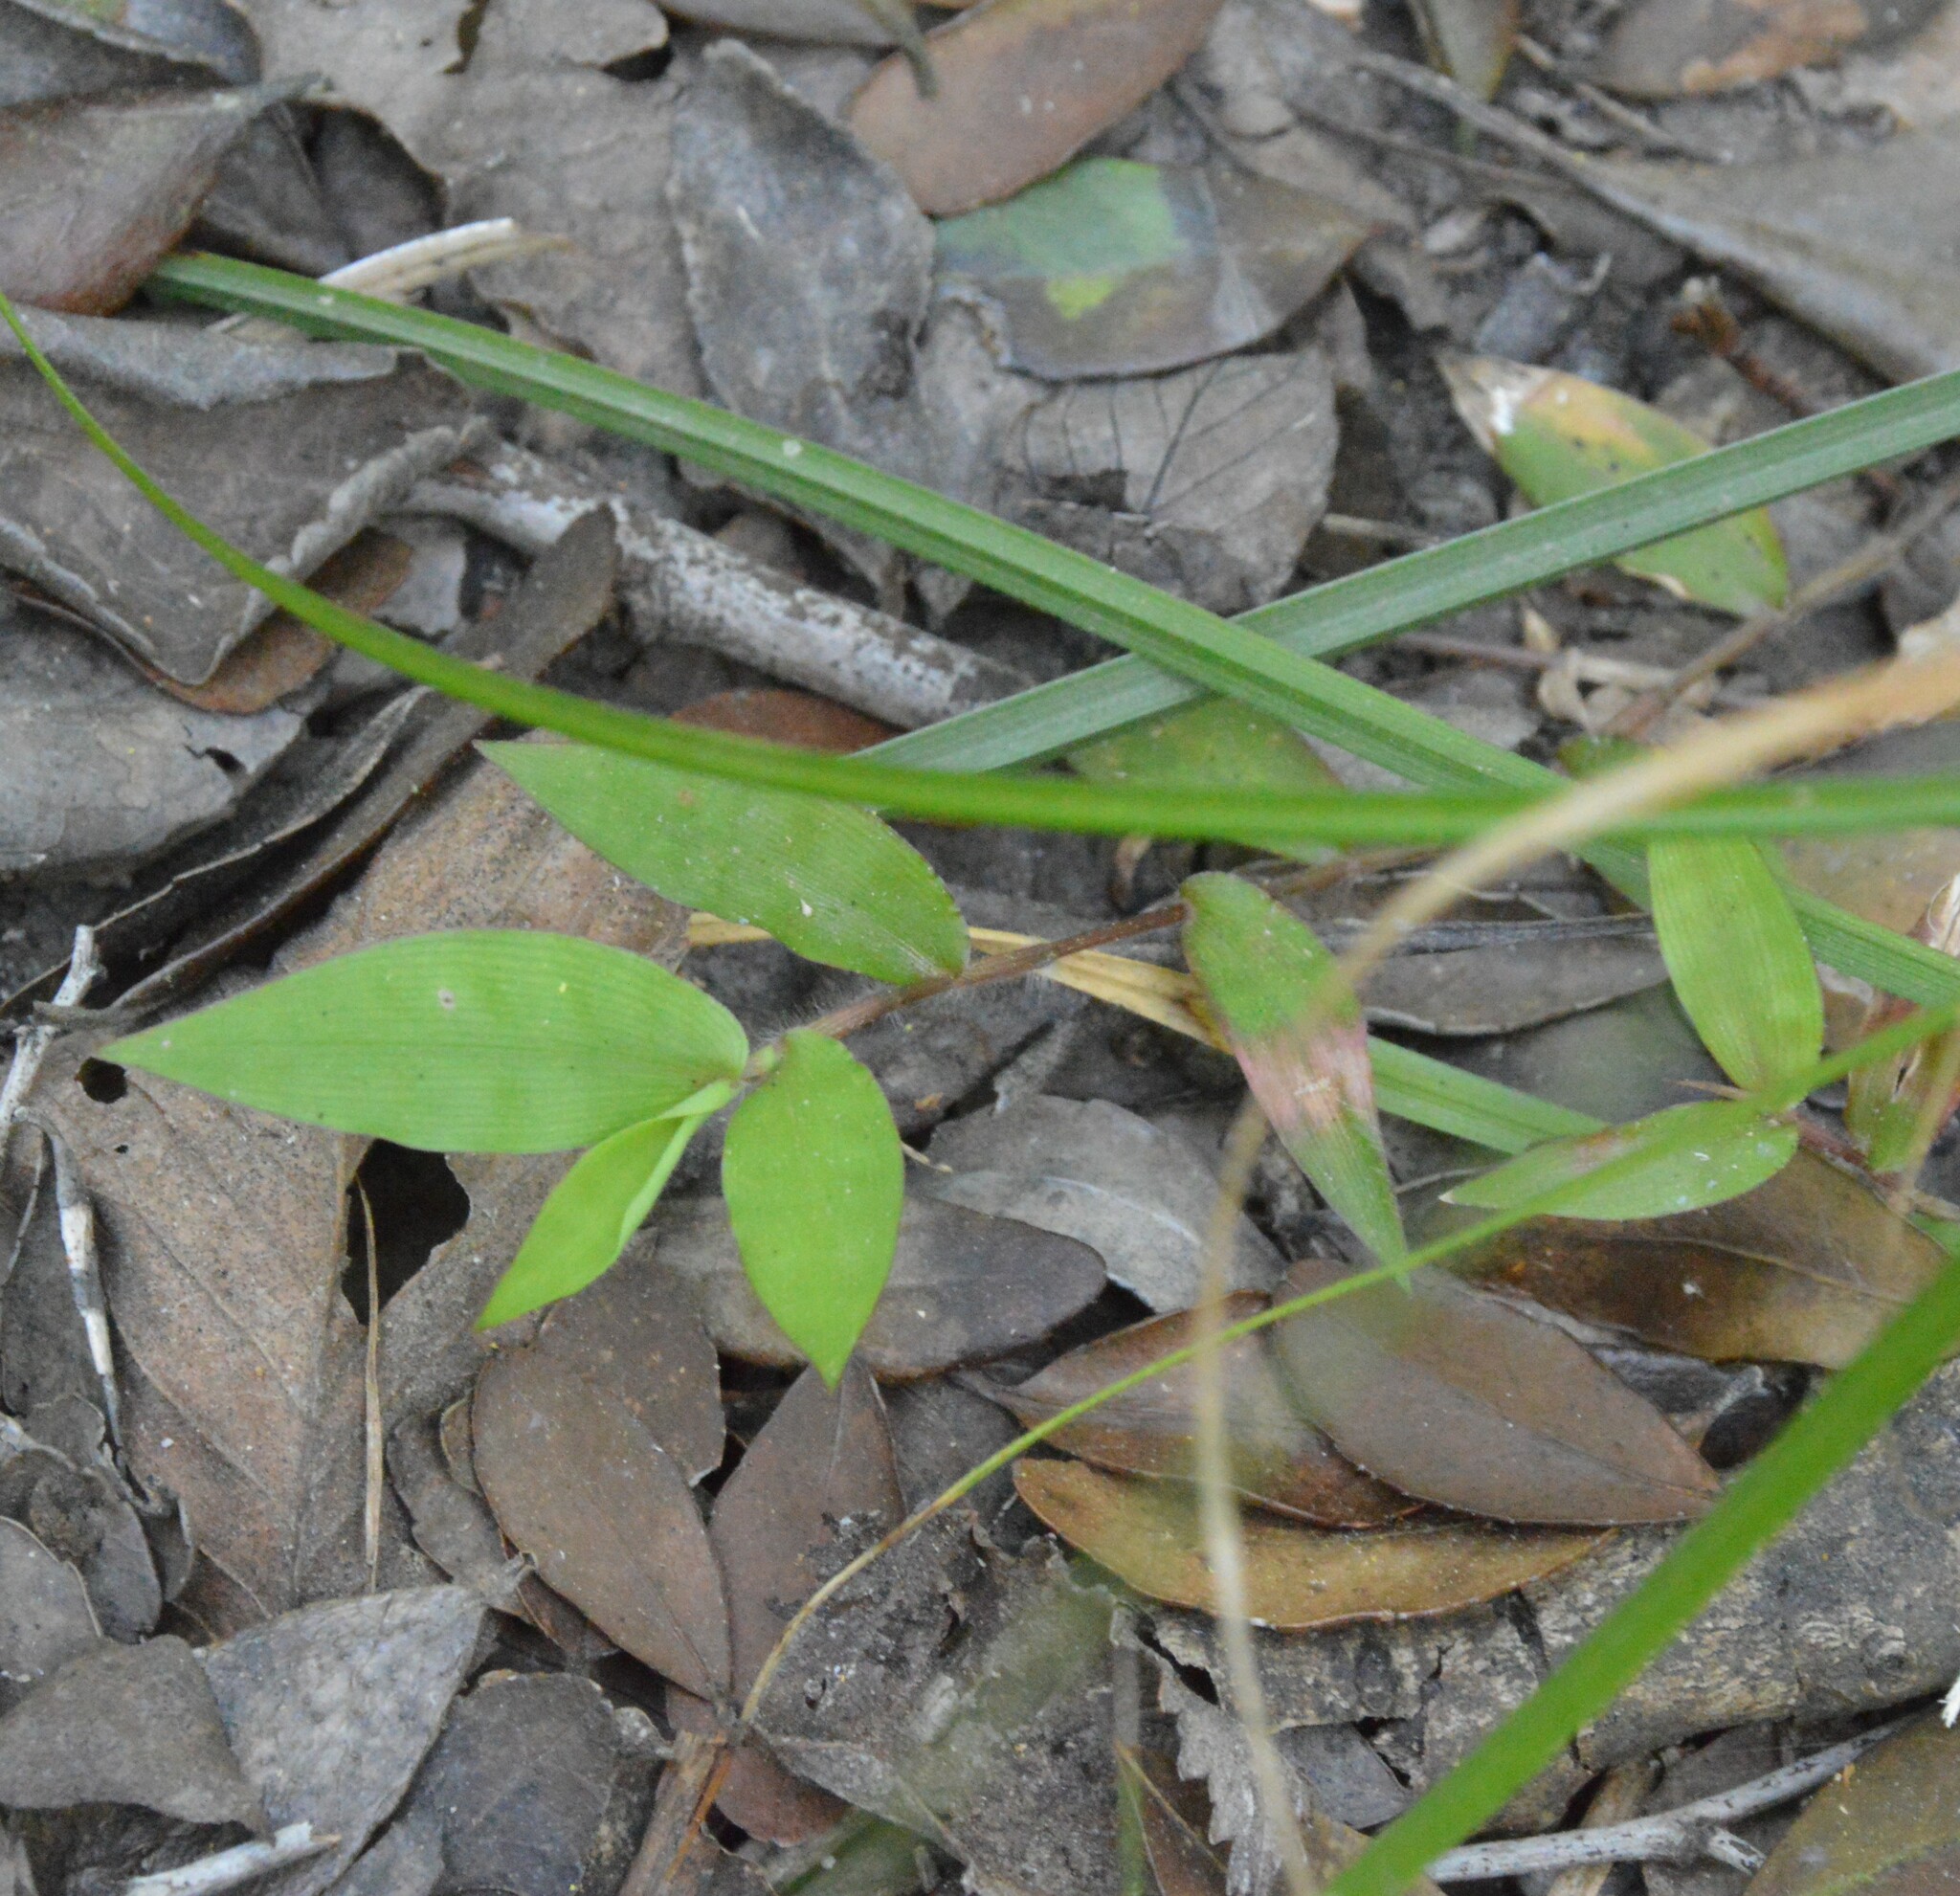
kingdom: Plantae
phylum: Tracheophyta
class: Liliopsida
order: Poales
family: Poaceae
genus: Oplismenus
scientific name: Oplismenus hirtellus
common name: Basketgrass
